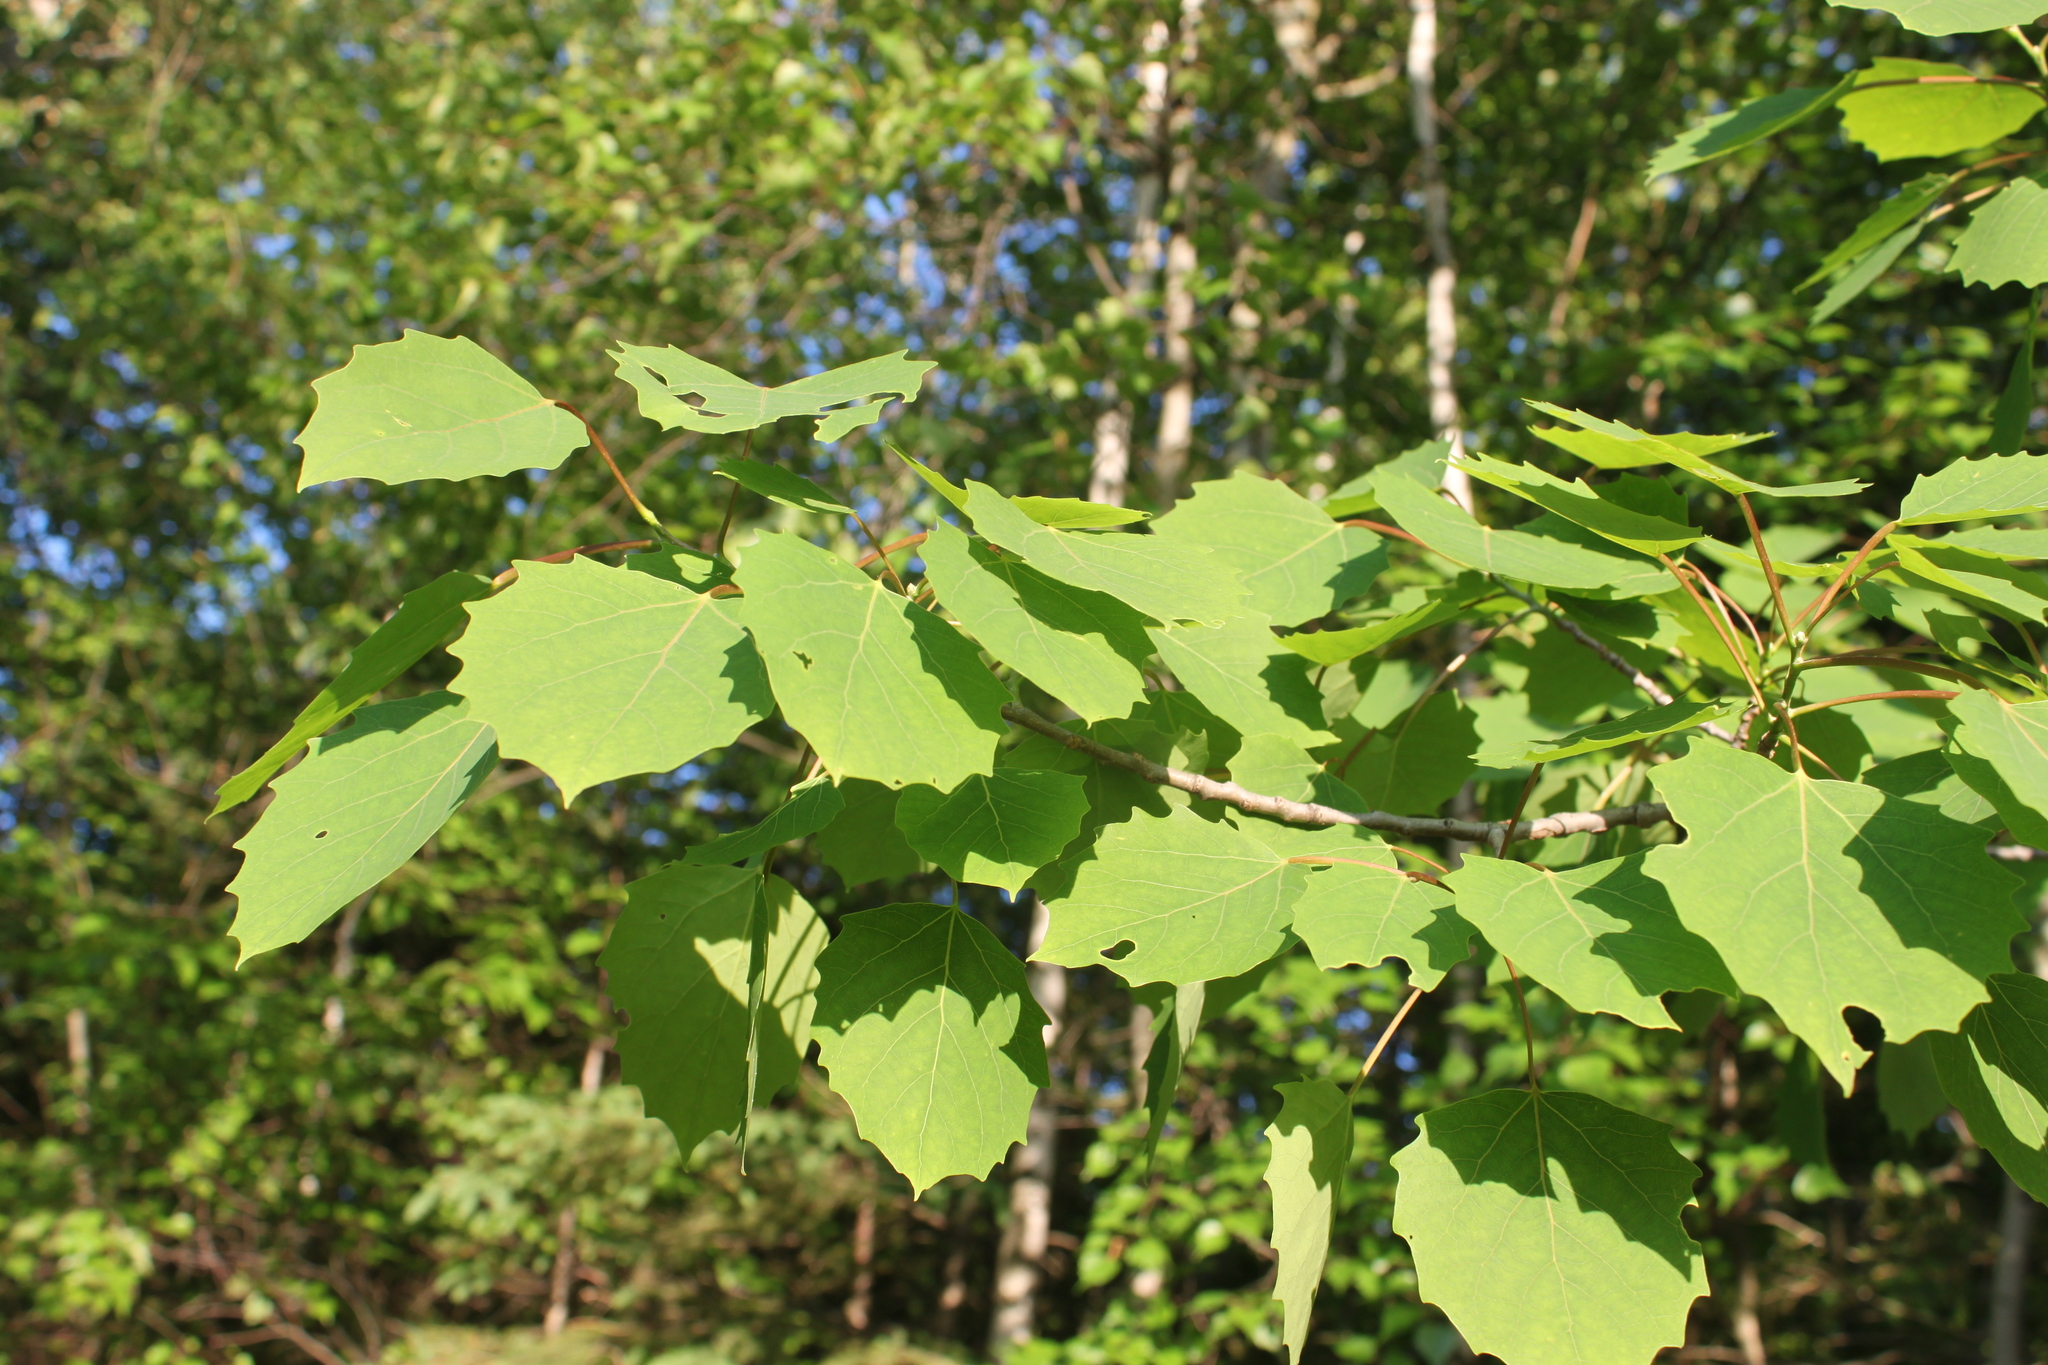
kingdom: Plantae
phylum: Tracheophyta
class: Magnoliopsida
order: Malpighiales
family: Salicaceae
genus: Populus
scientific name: Populus grandidentata
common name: Bigtooth aspen
